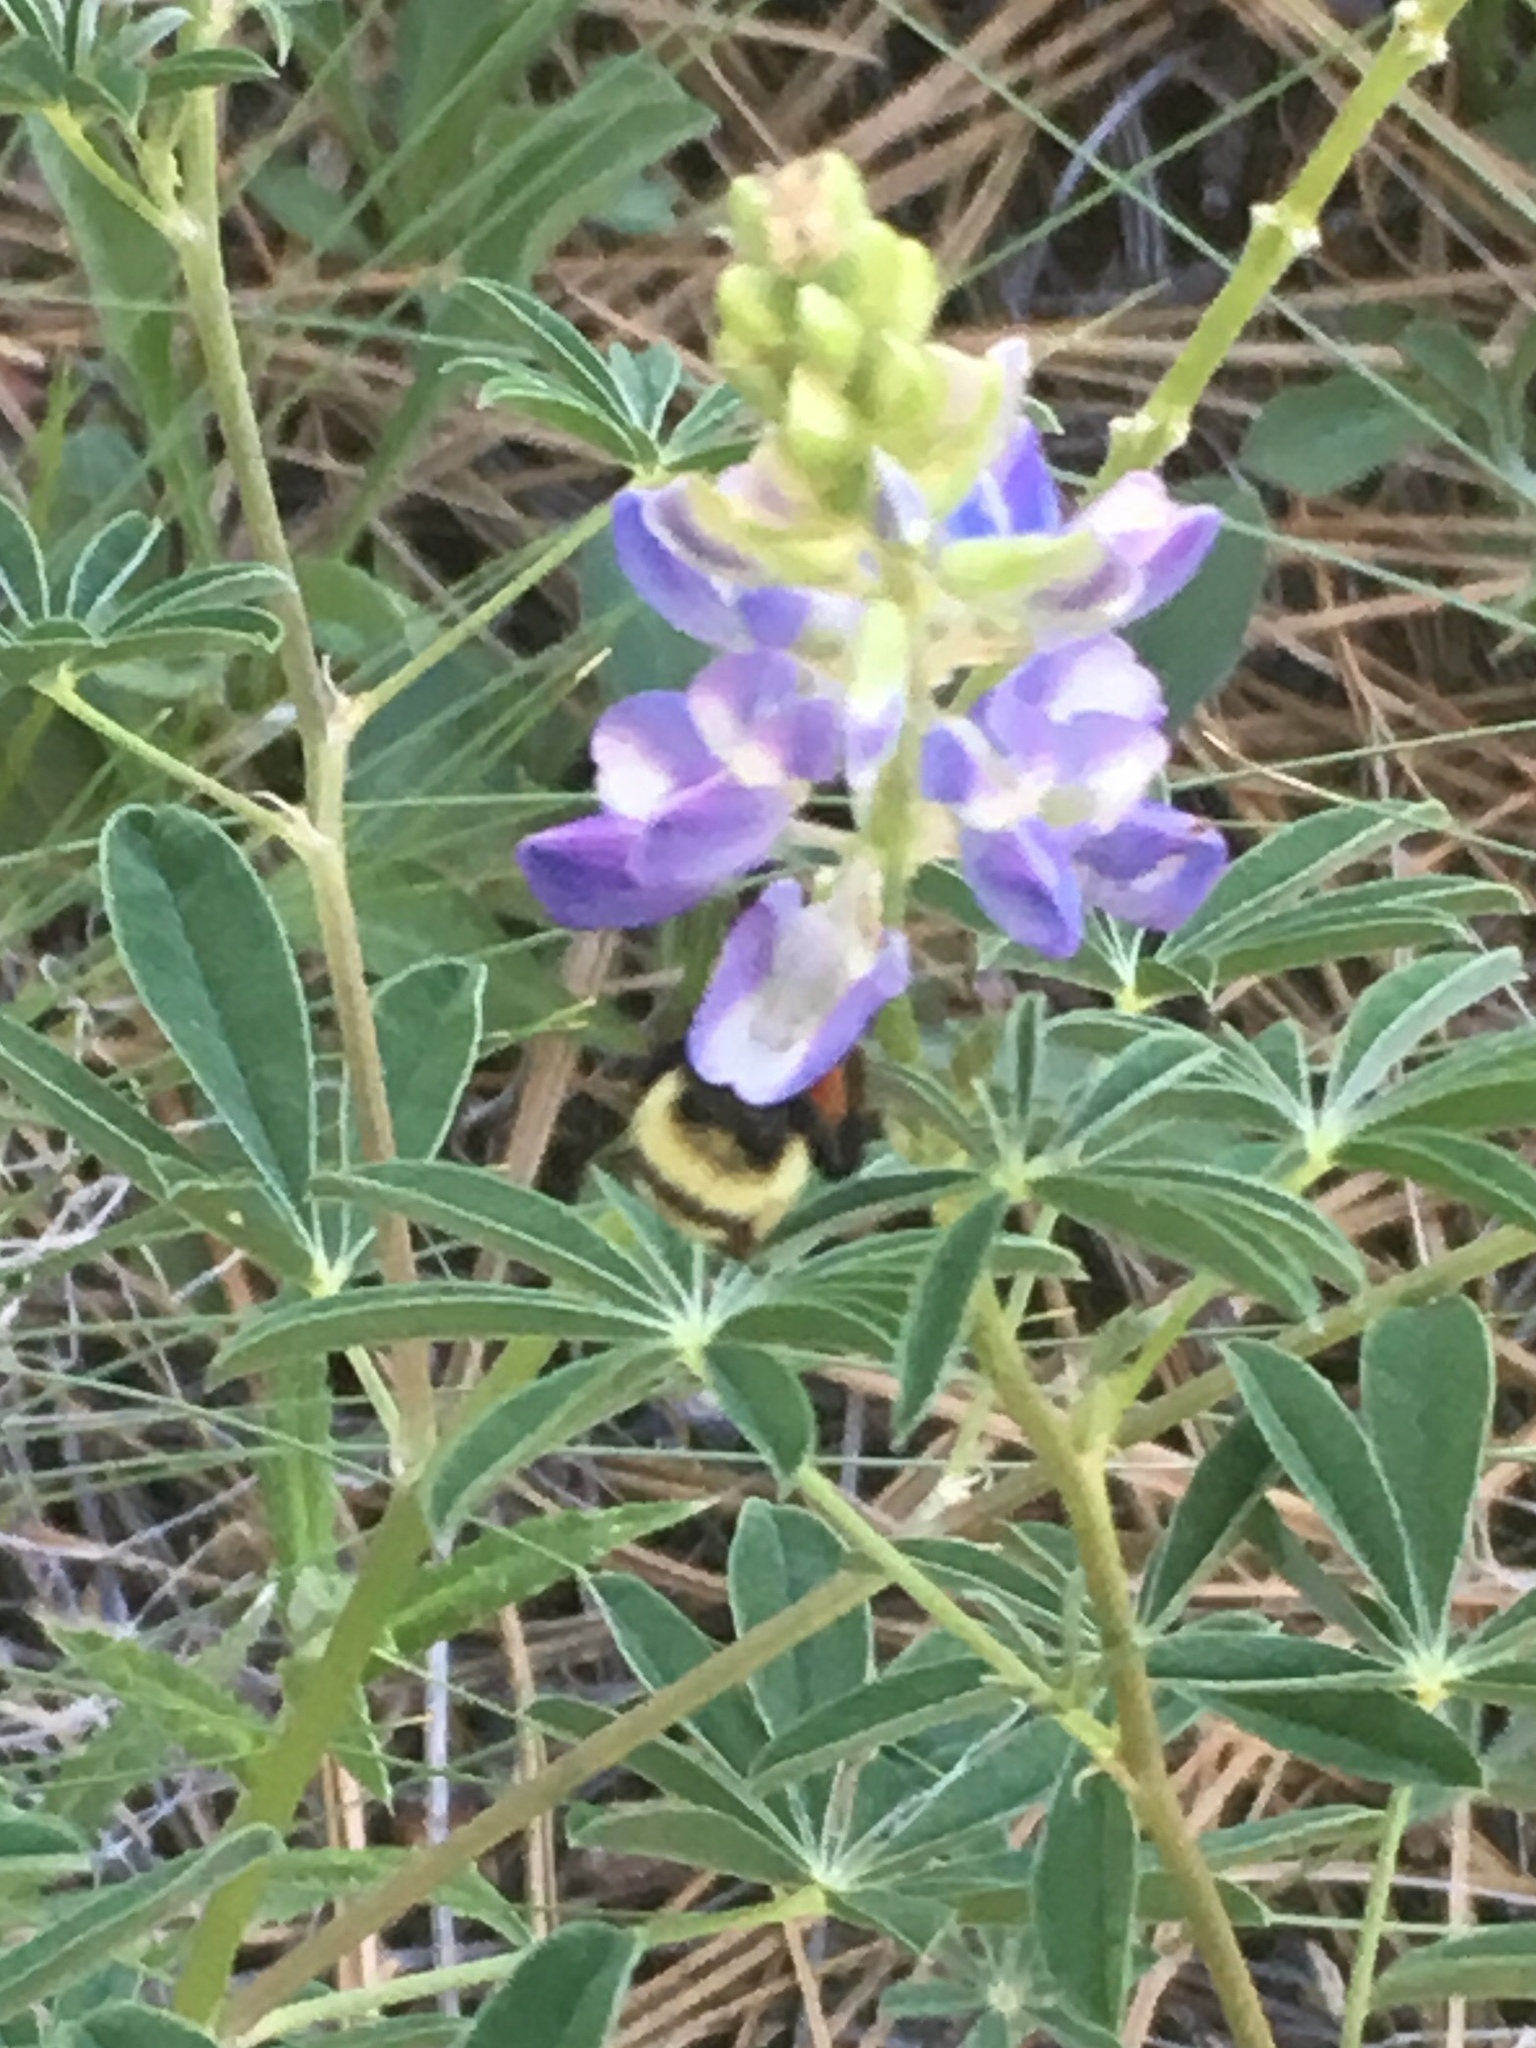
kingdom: Animalia
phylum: Arthropoda
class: Insecta
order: Hymenoptera
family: Apidae
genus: Bombus
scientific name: Bombus huntii
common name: Hunt bumble bee
